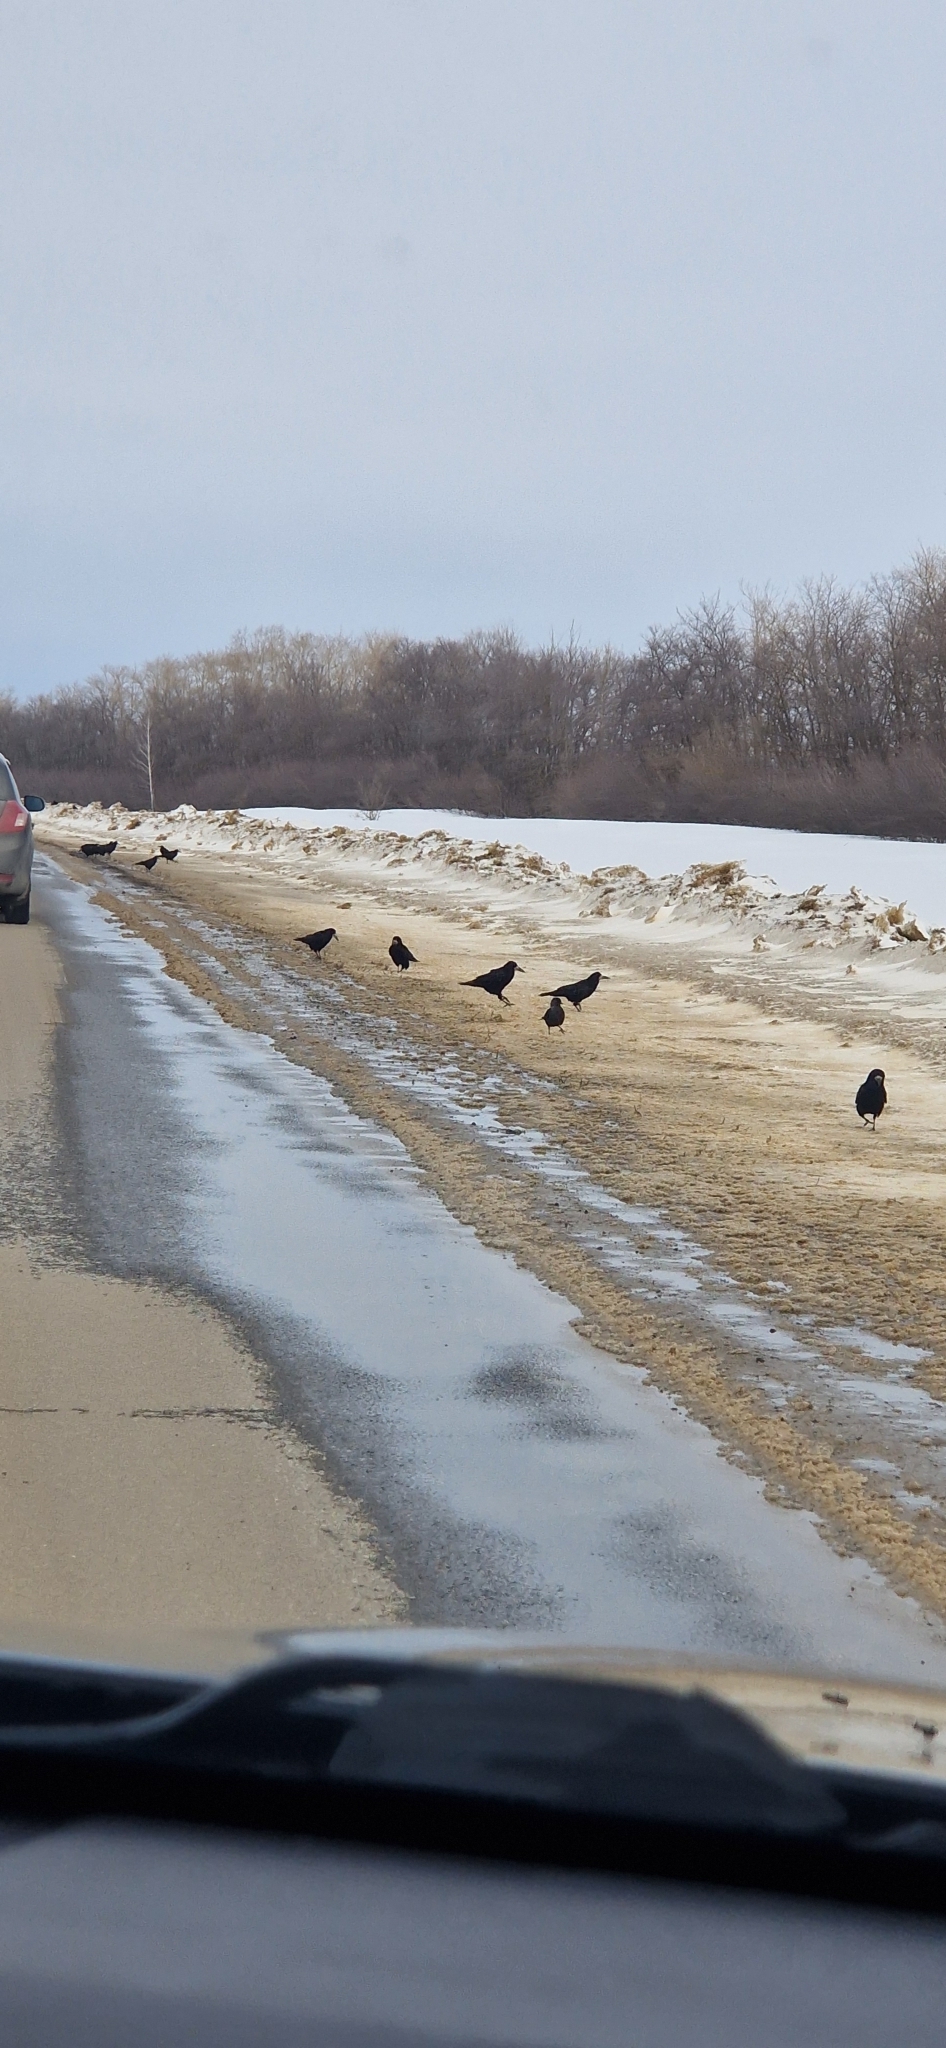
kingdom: Animalia
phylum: Chordata
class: Aves
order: Passeriformes
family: Corvidae
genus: Corvus
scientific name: Corvus frugilegus
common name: Rook
